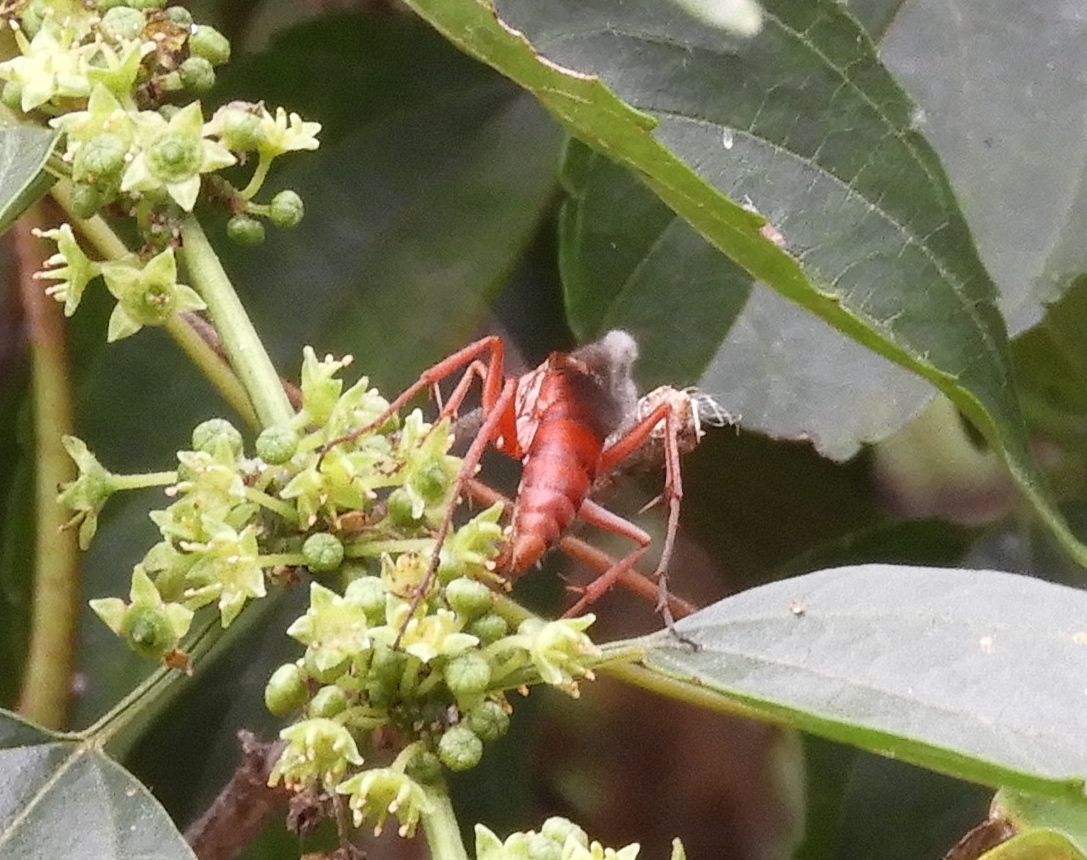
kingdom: Animalia
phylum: Arthropoda
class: Insecta
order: Hymenoptera
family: Pompilidae
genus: Tachypompilus
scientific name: Tachypompilus
